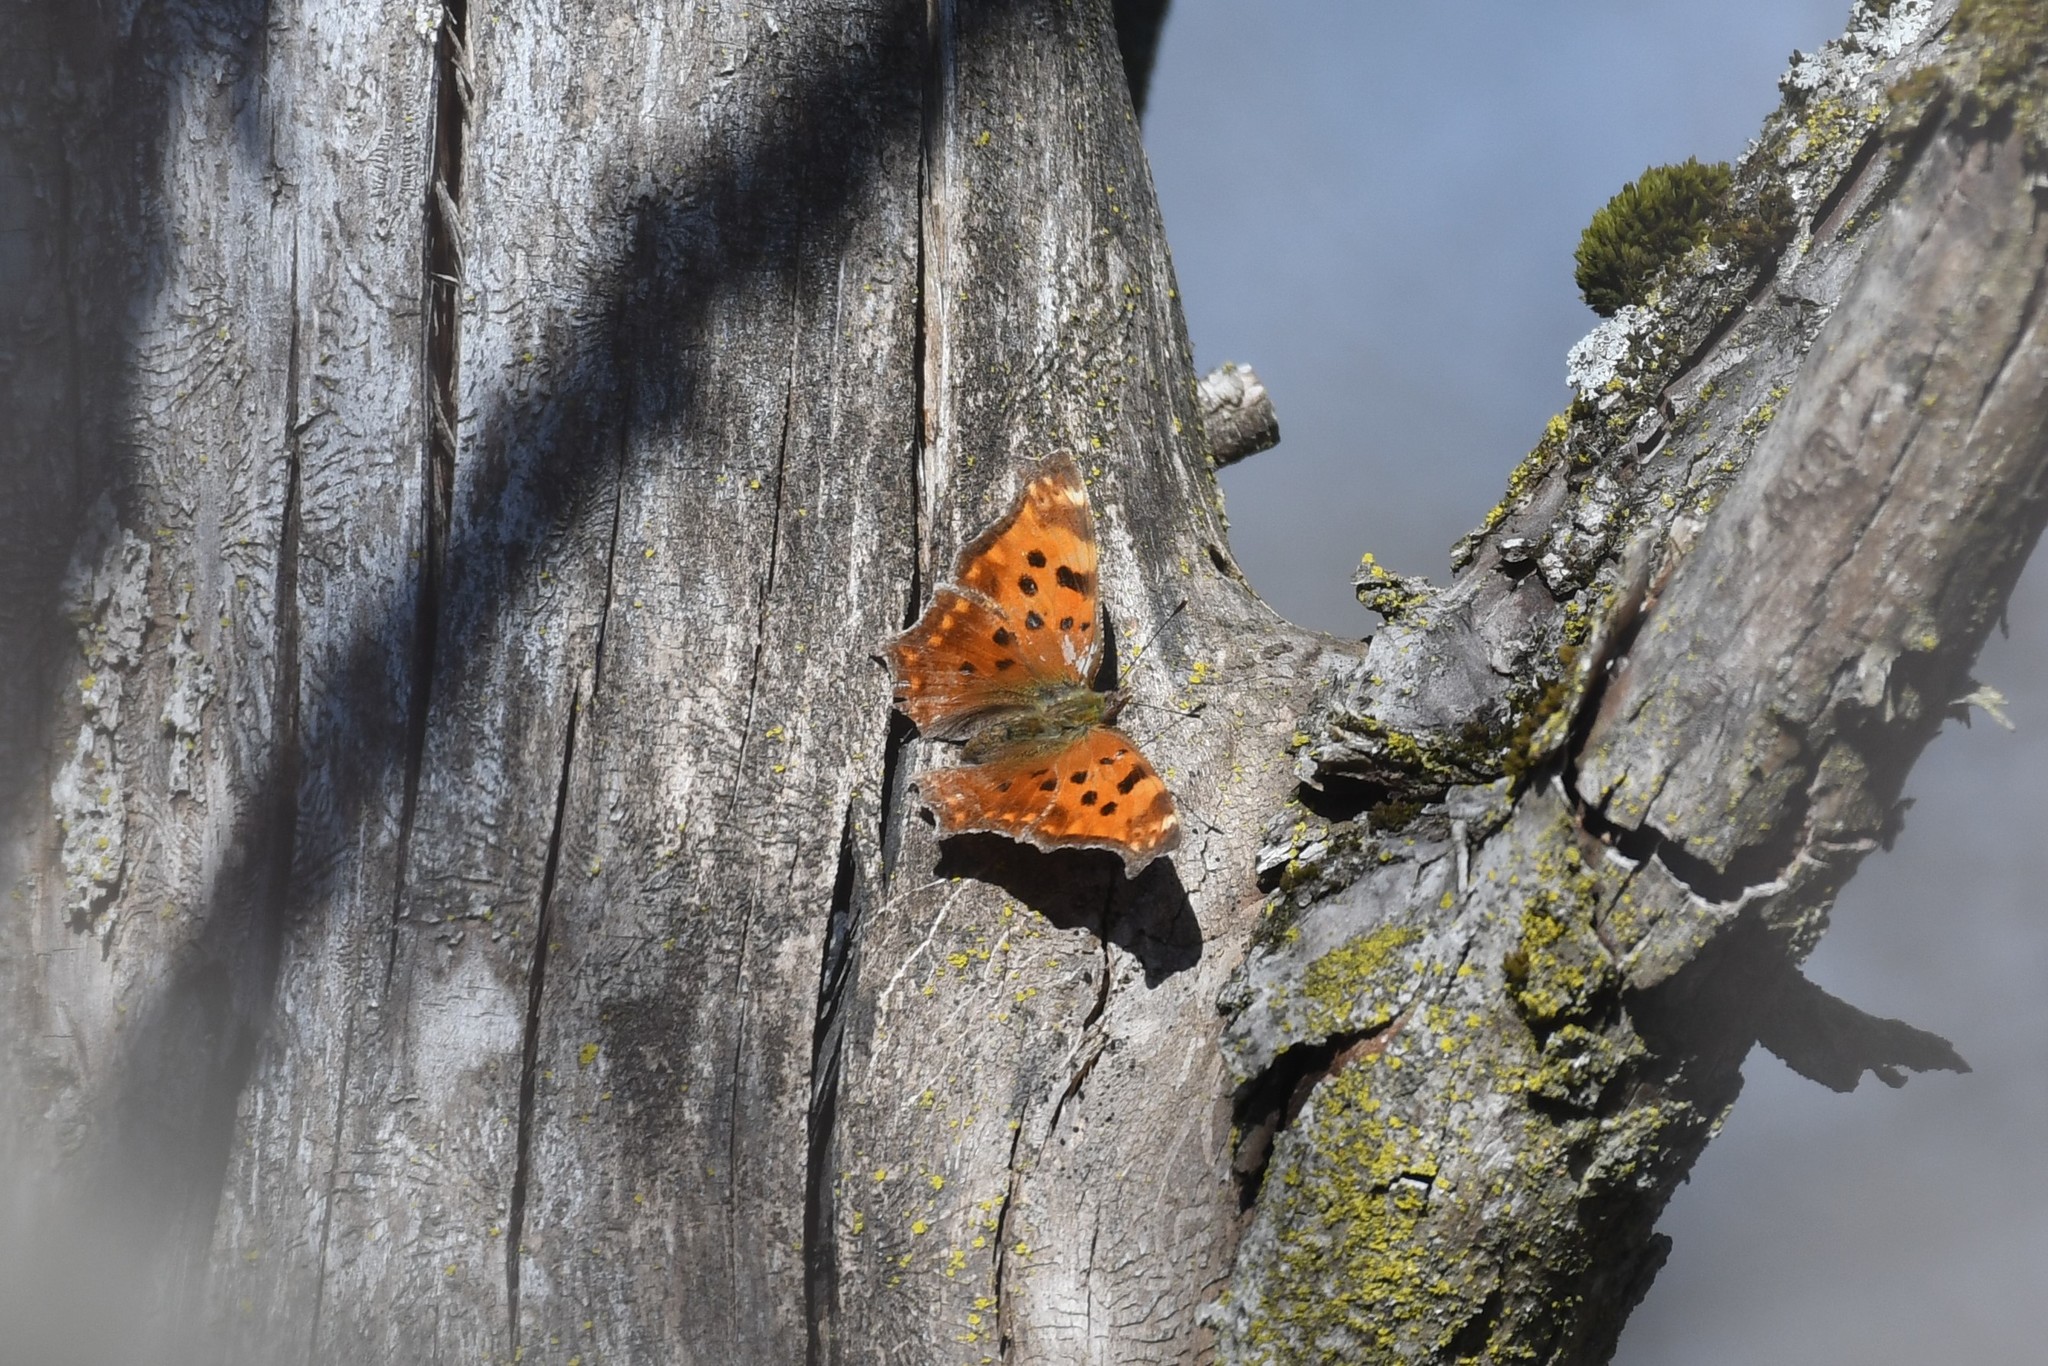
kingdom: Animalia
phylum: Arthropoda
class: Insecta
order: Lepidoptera
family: Nymphalidae
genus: Polygonia
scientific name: Polygonia comma
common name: Eastern comma
